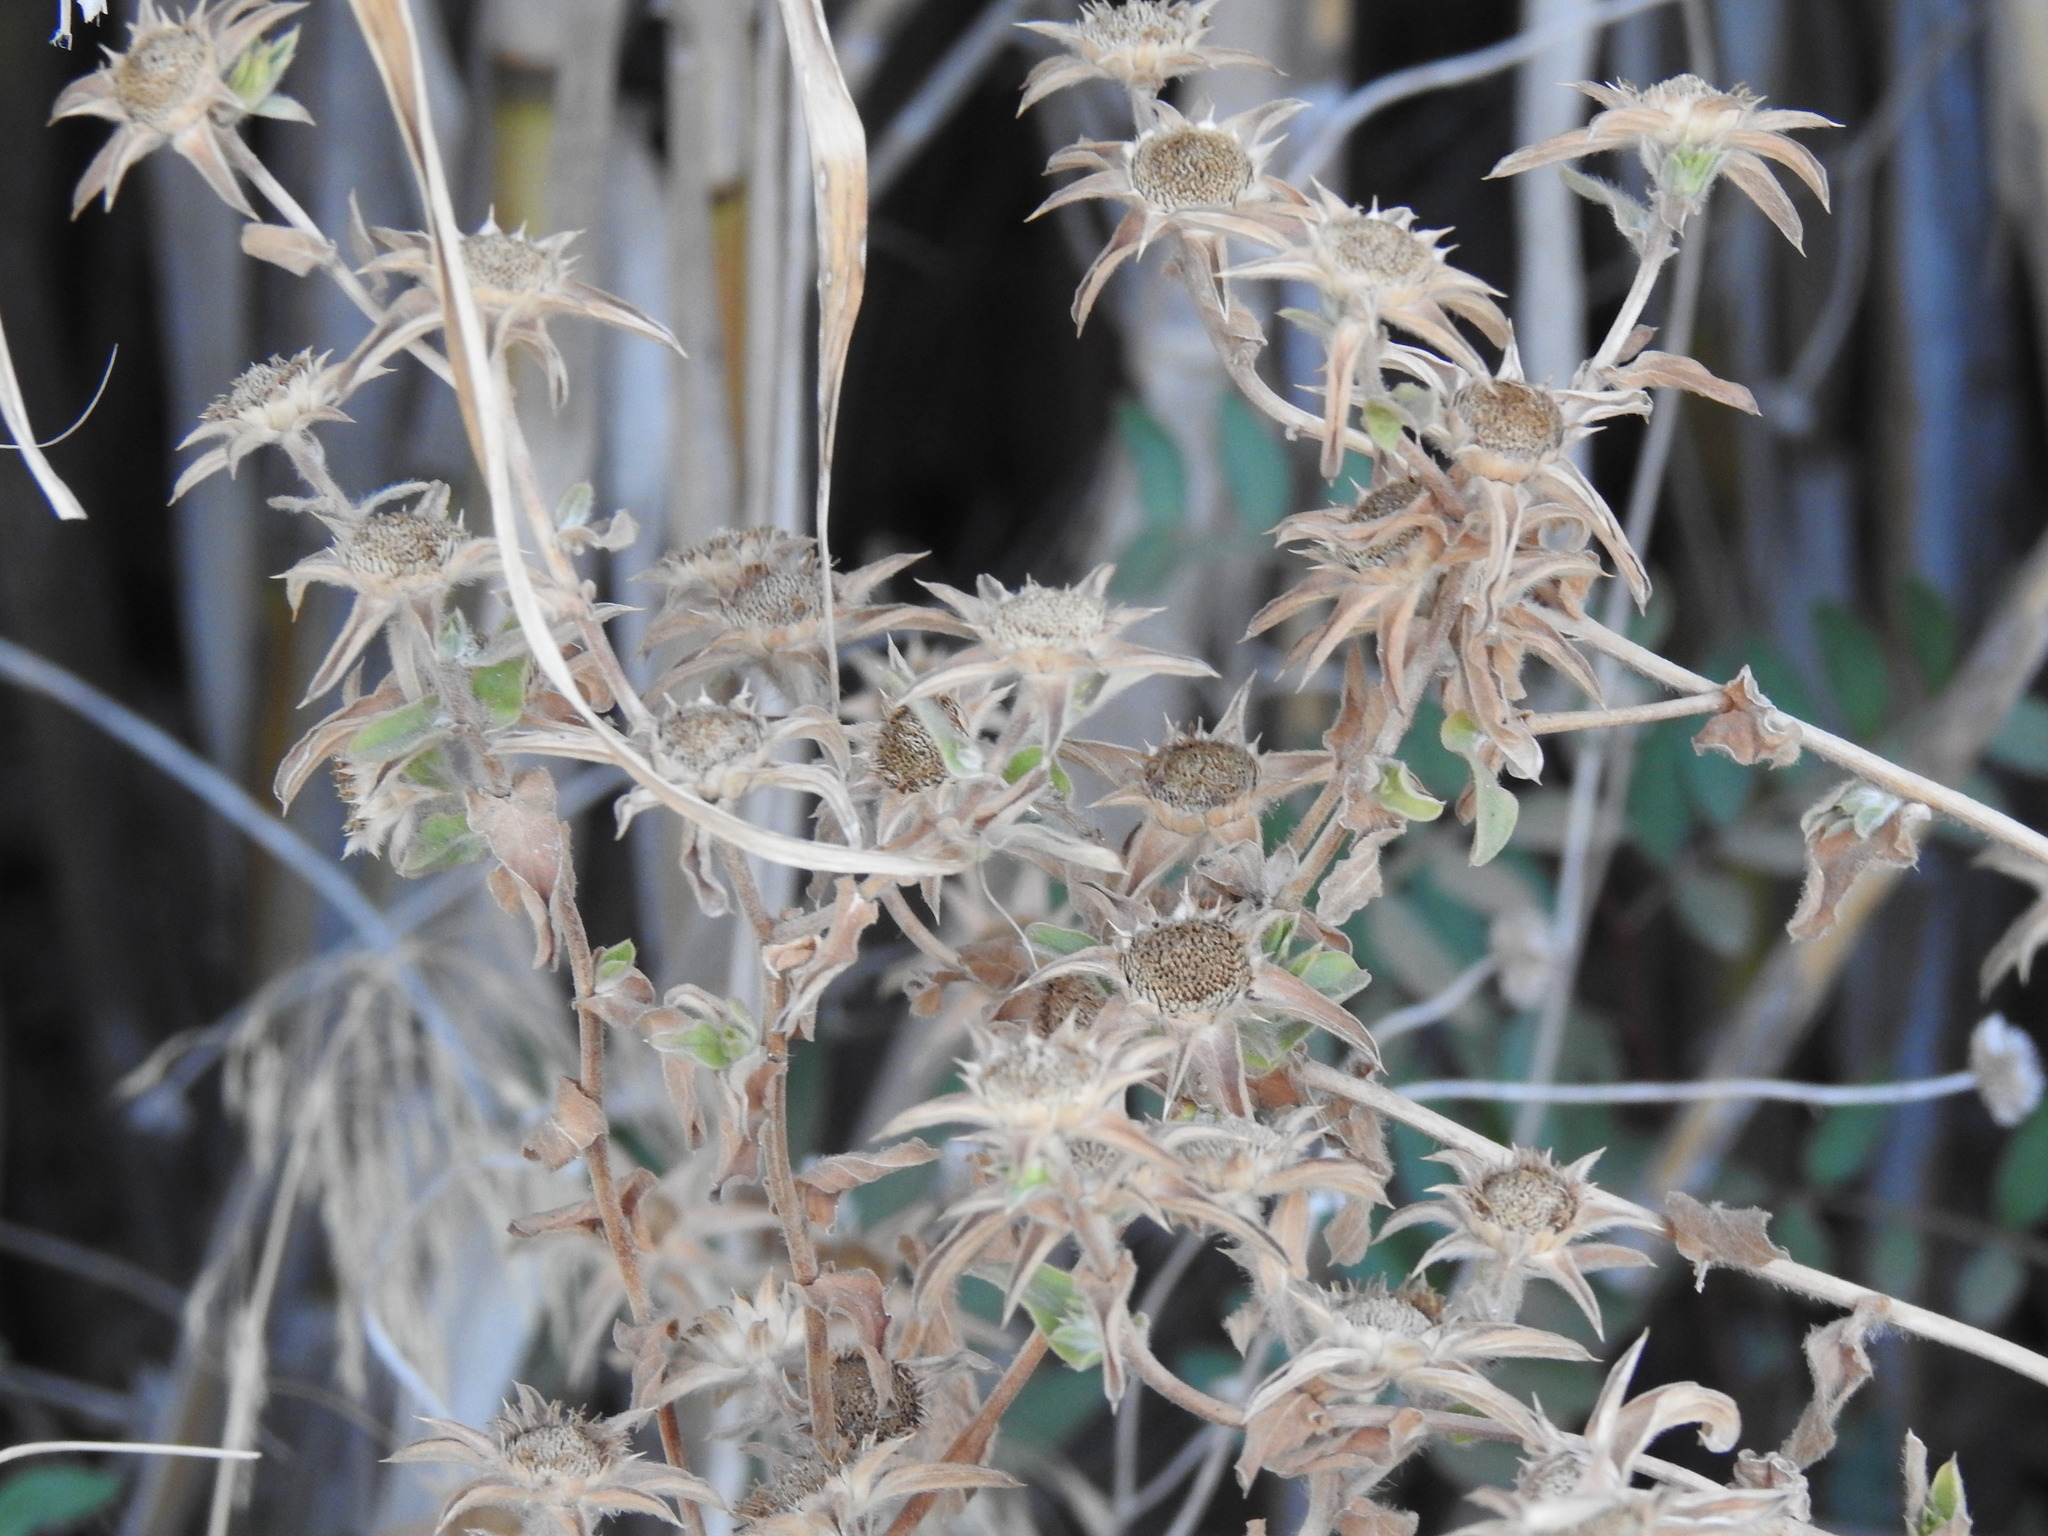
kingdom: Plantae
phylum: Tracheophyta
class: Magnoliopsida
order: Asterales
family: Asteraceae
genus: Pallenis
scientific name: Pallenis spinosa
